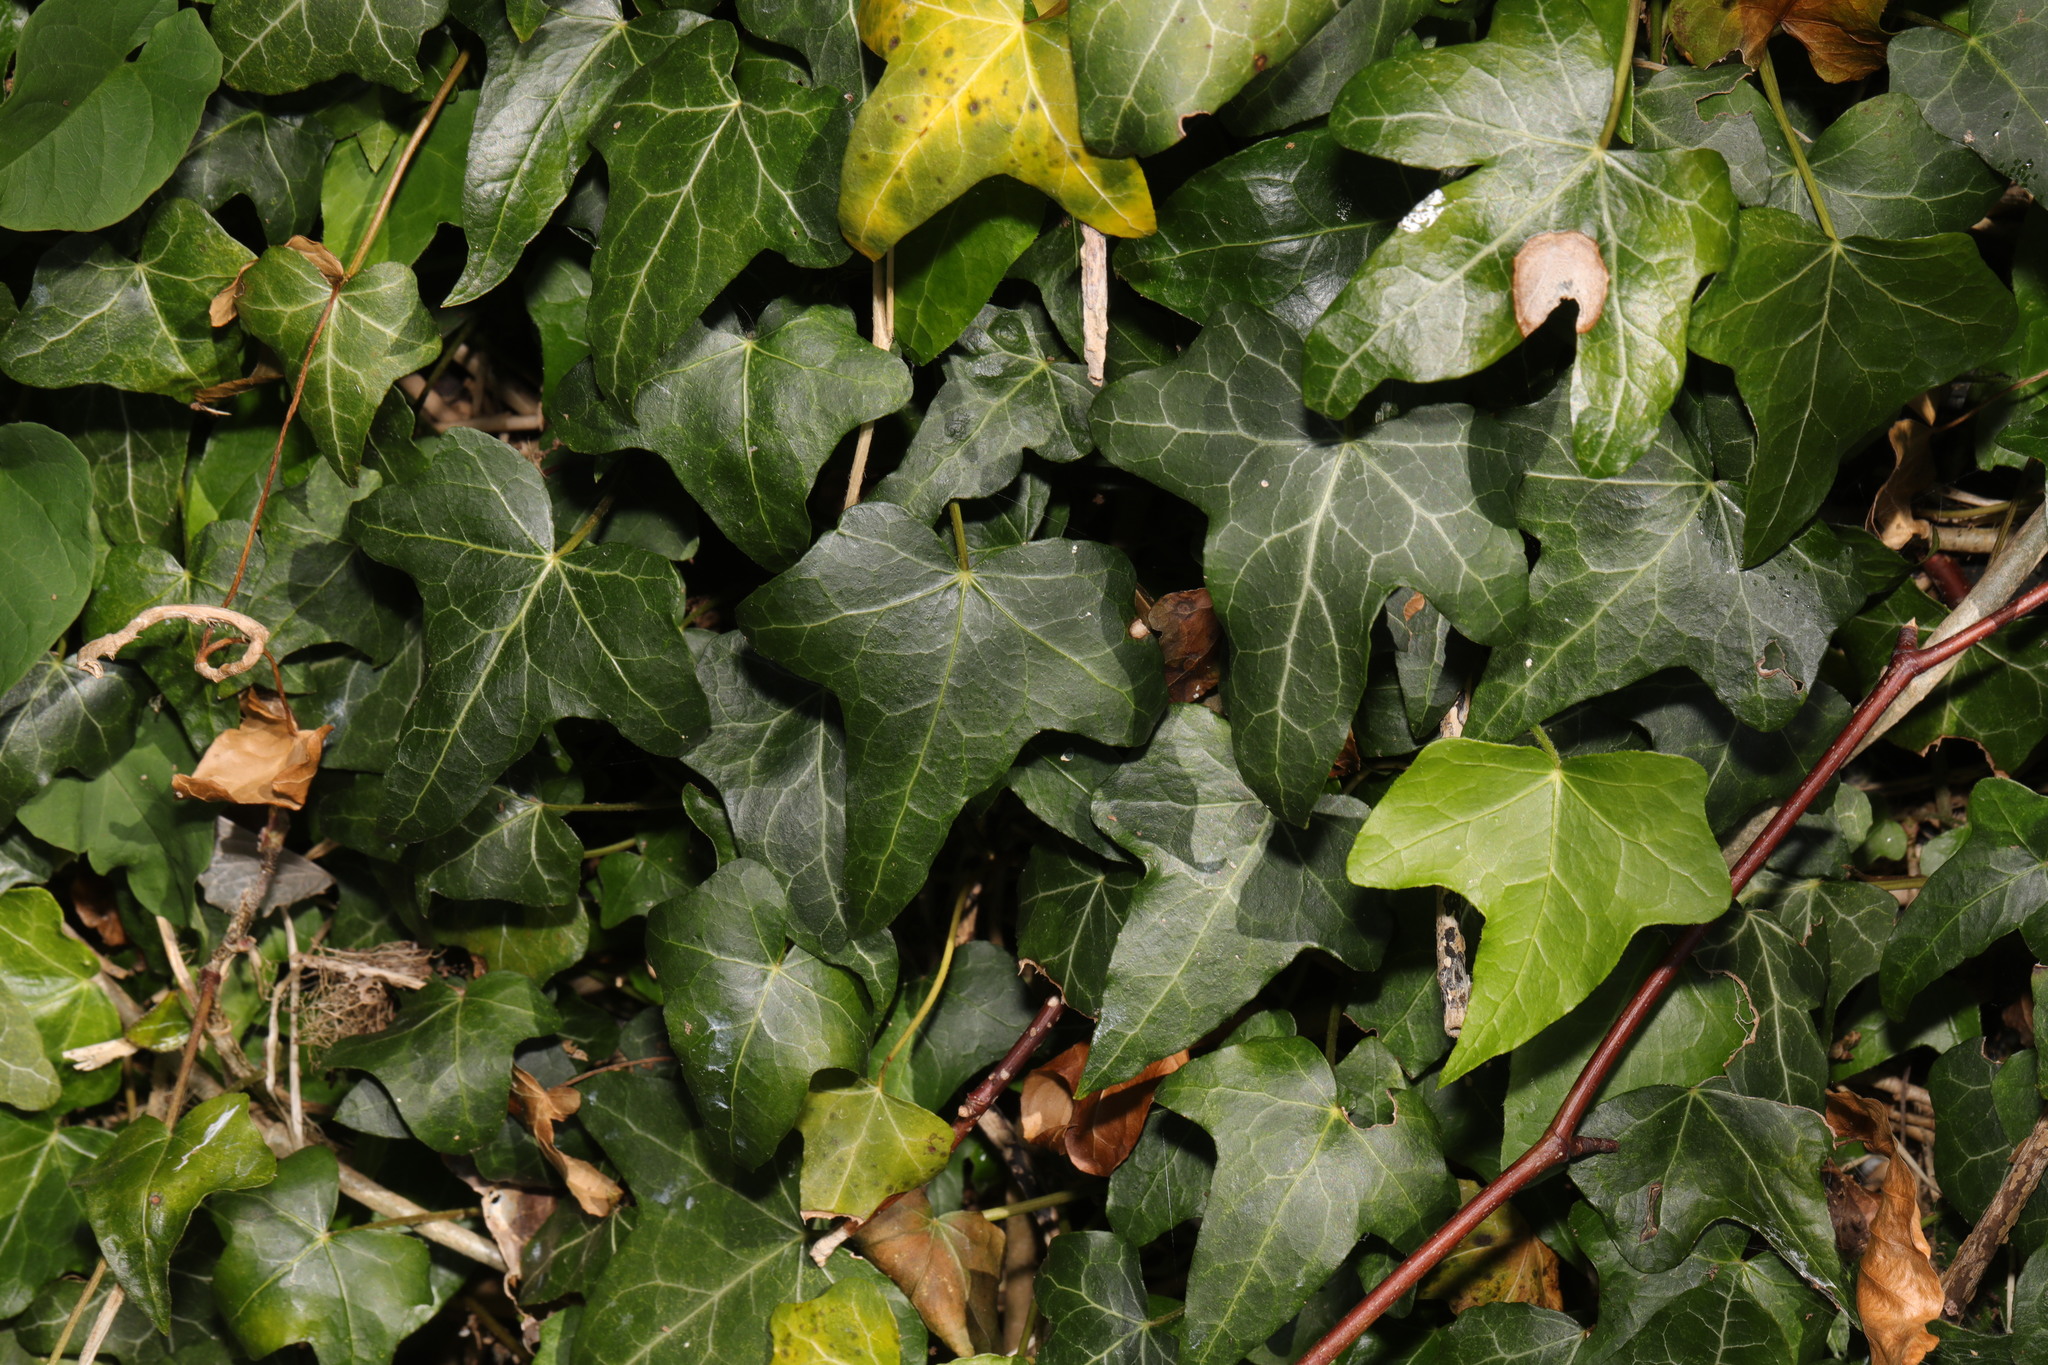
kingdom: Plantae
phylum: Tracheophyta
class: Magnoliopsida
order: Apiales
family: Araliaceae
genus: Hedera
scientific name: Hedera helix
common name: Ivy
